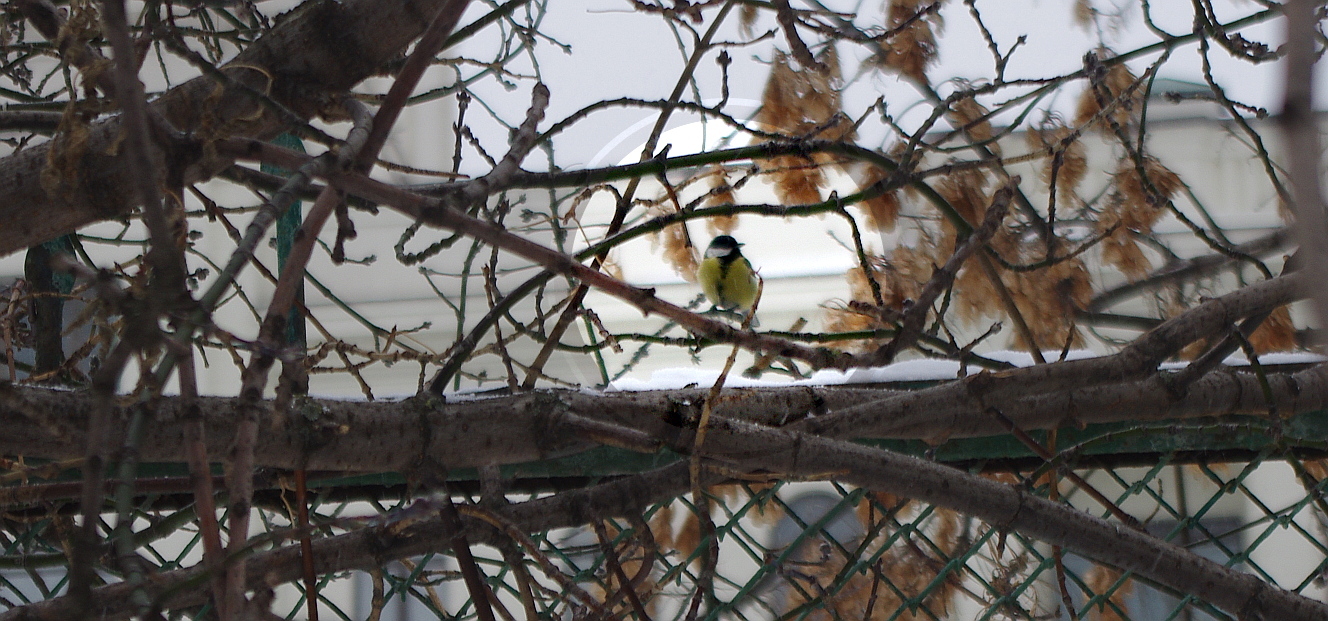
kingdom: Animalia
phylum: Chordata
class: Aves
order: Passeriformes
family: Paridae
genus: Parus
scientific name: Parus major
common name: Great tit
